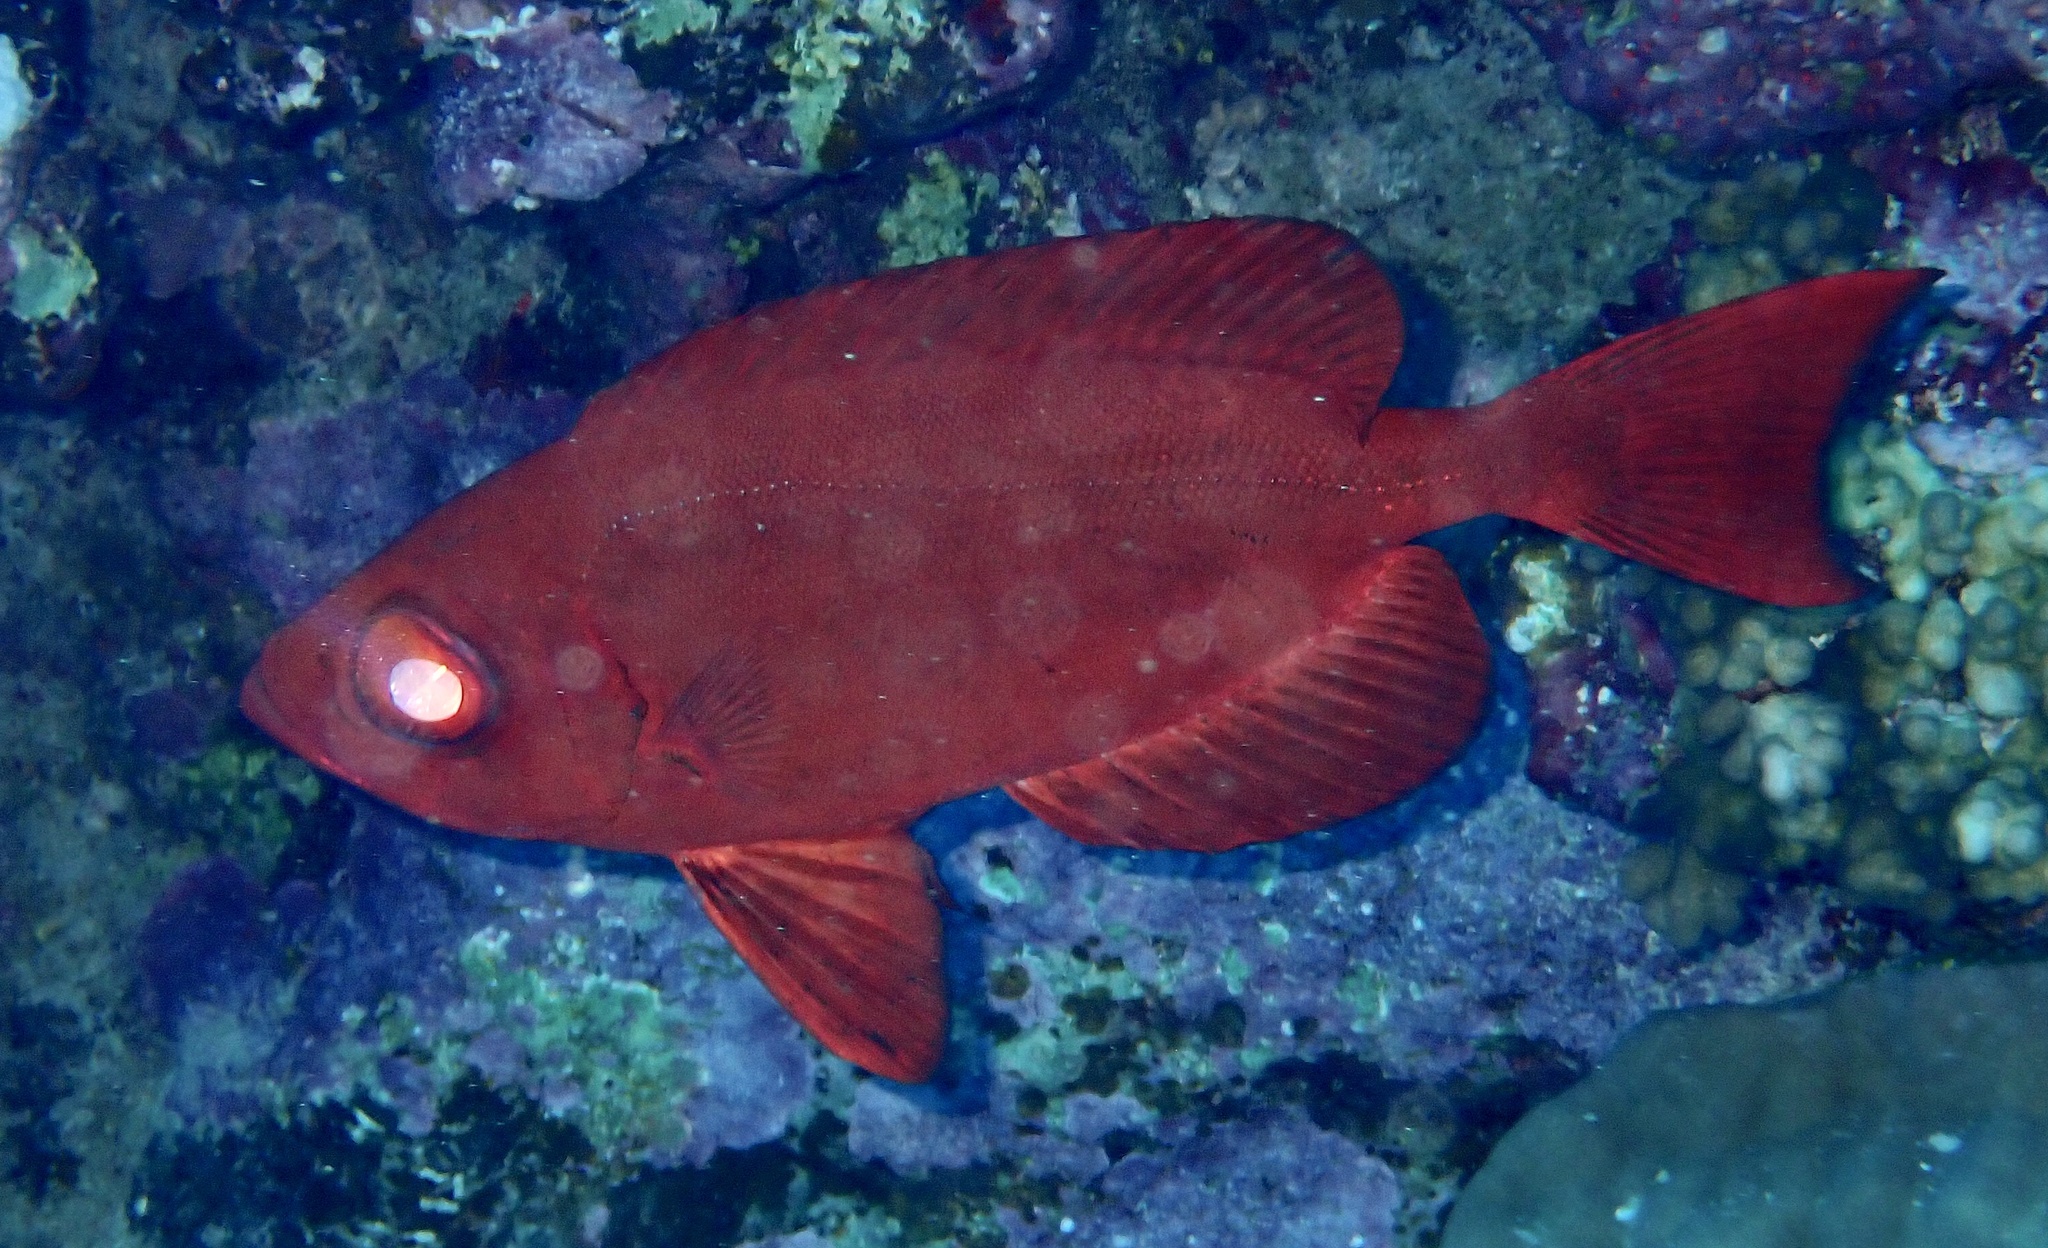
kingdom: Animalia
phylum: Chordata
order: Perciformes
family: Priacanthidae
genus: Priacanthus
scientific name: Priacanthus hamrur
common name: Moontail bullseye
